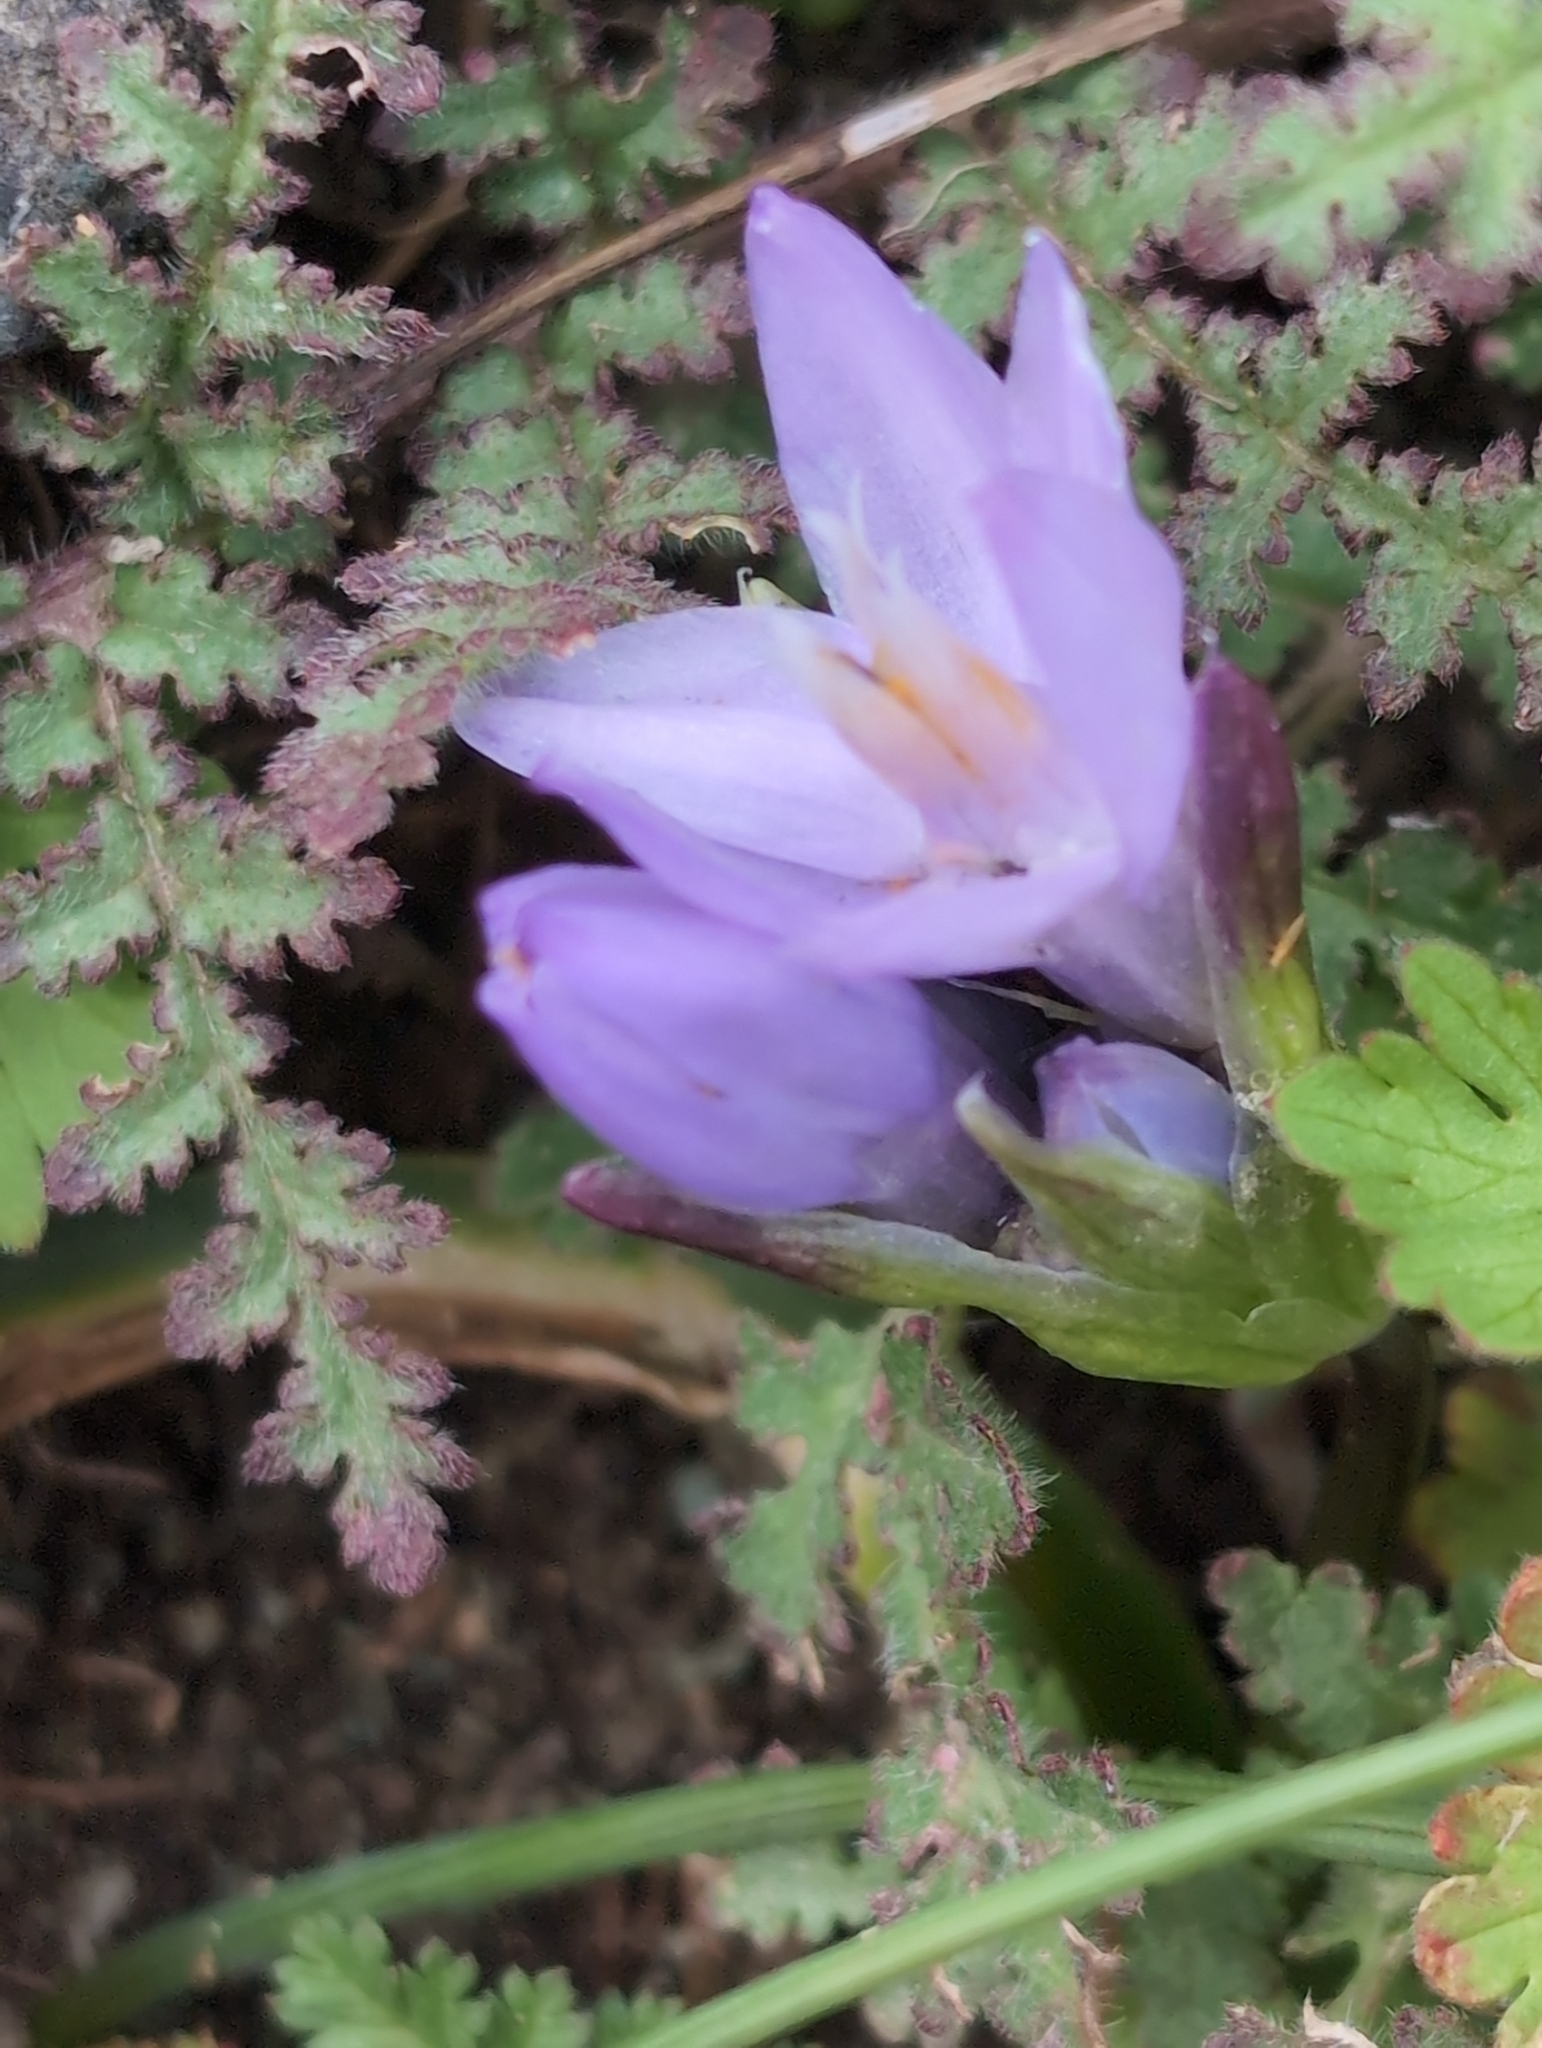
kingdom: Plantae
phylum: Tracheophyta
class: Liliopsida
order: Asparagales
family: Asparagaceae
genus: Dipterostemon
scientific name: Dipterostemon capitatus
